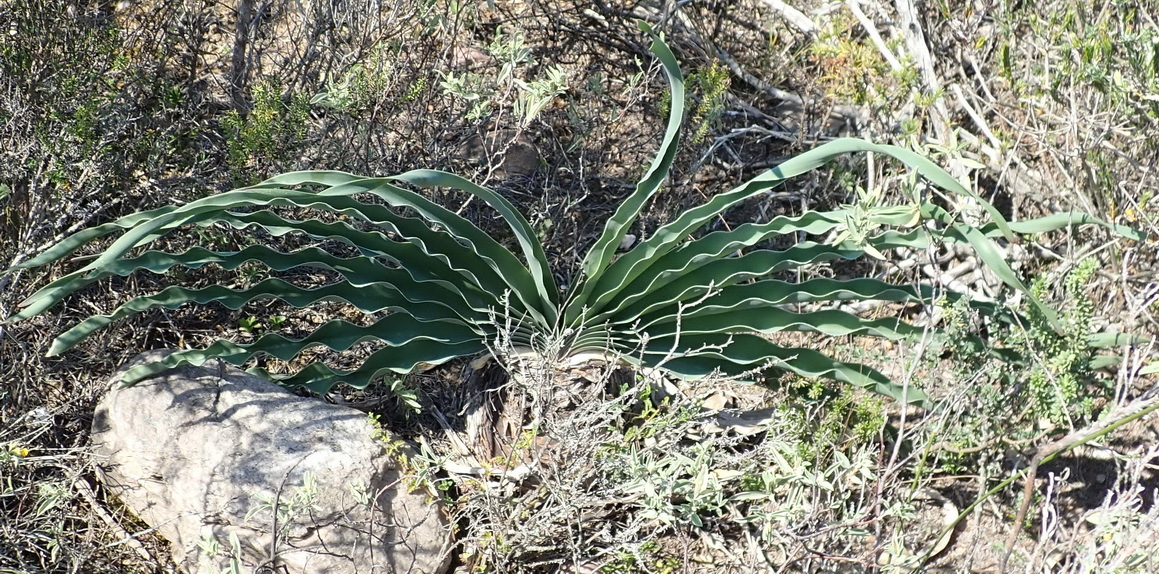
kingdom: Plantae
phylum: Tracheophyta
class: Liliopsida
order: Asparagales
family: Amaryllidaceae
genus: Boophone
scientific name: Boophone disticha
